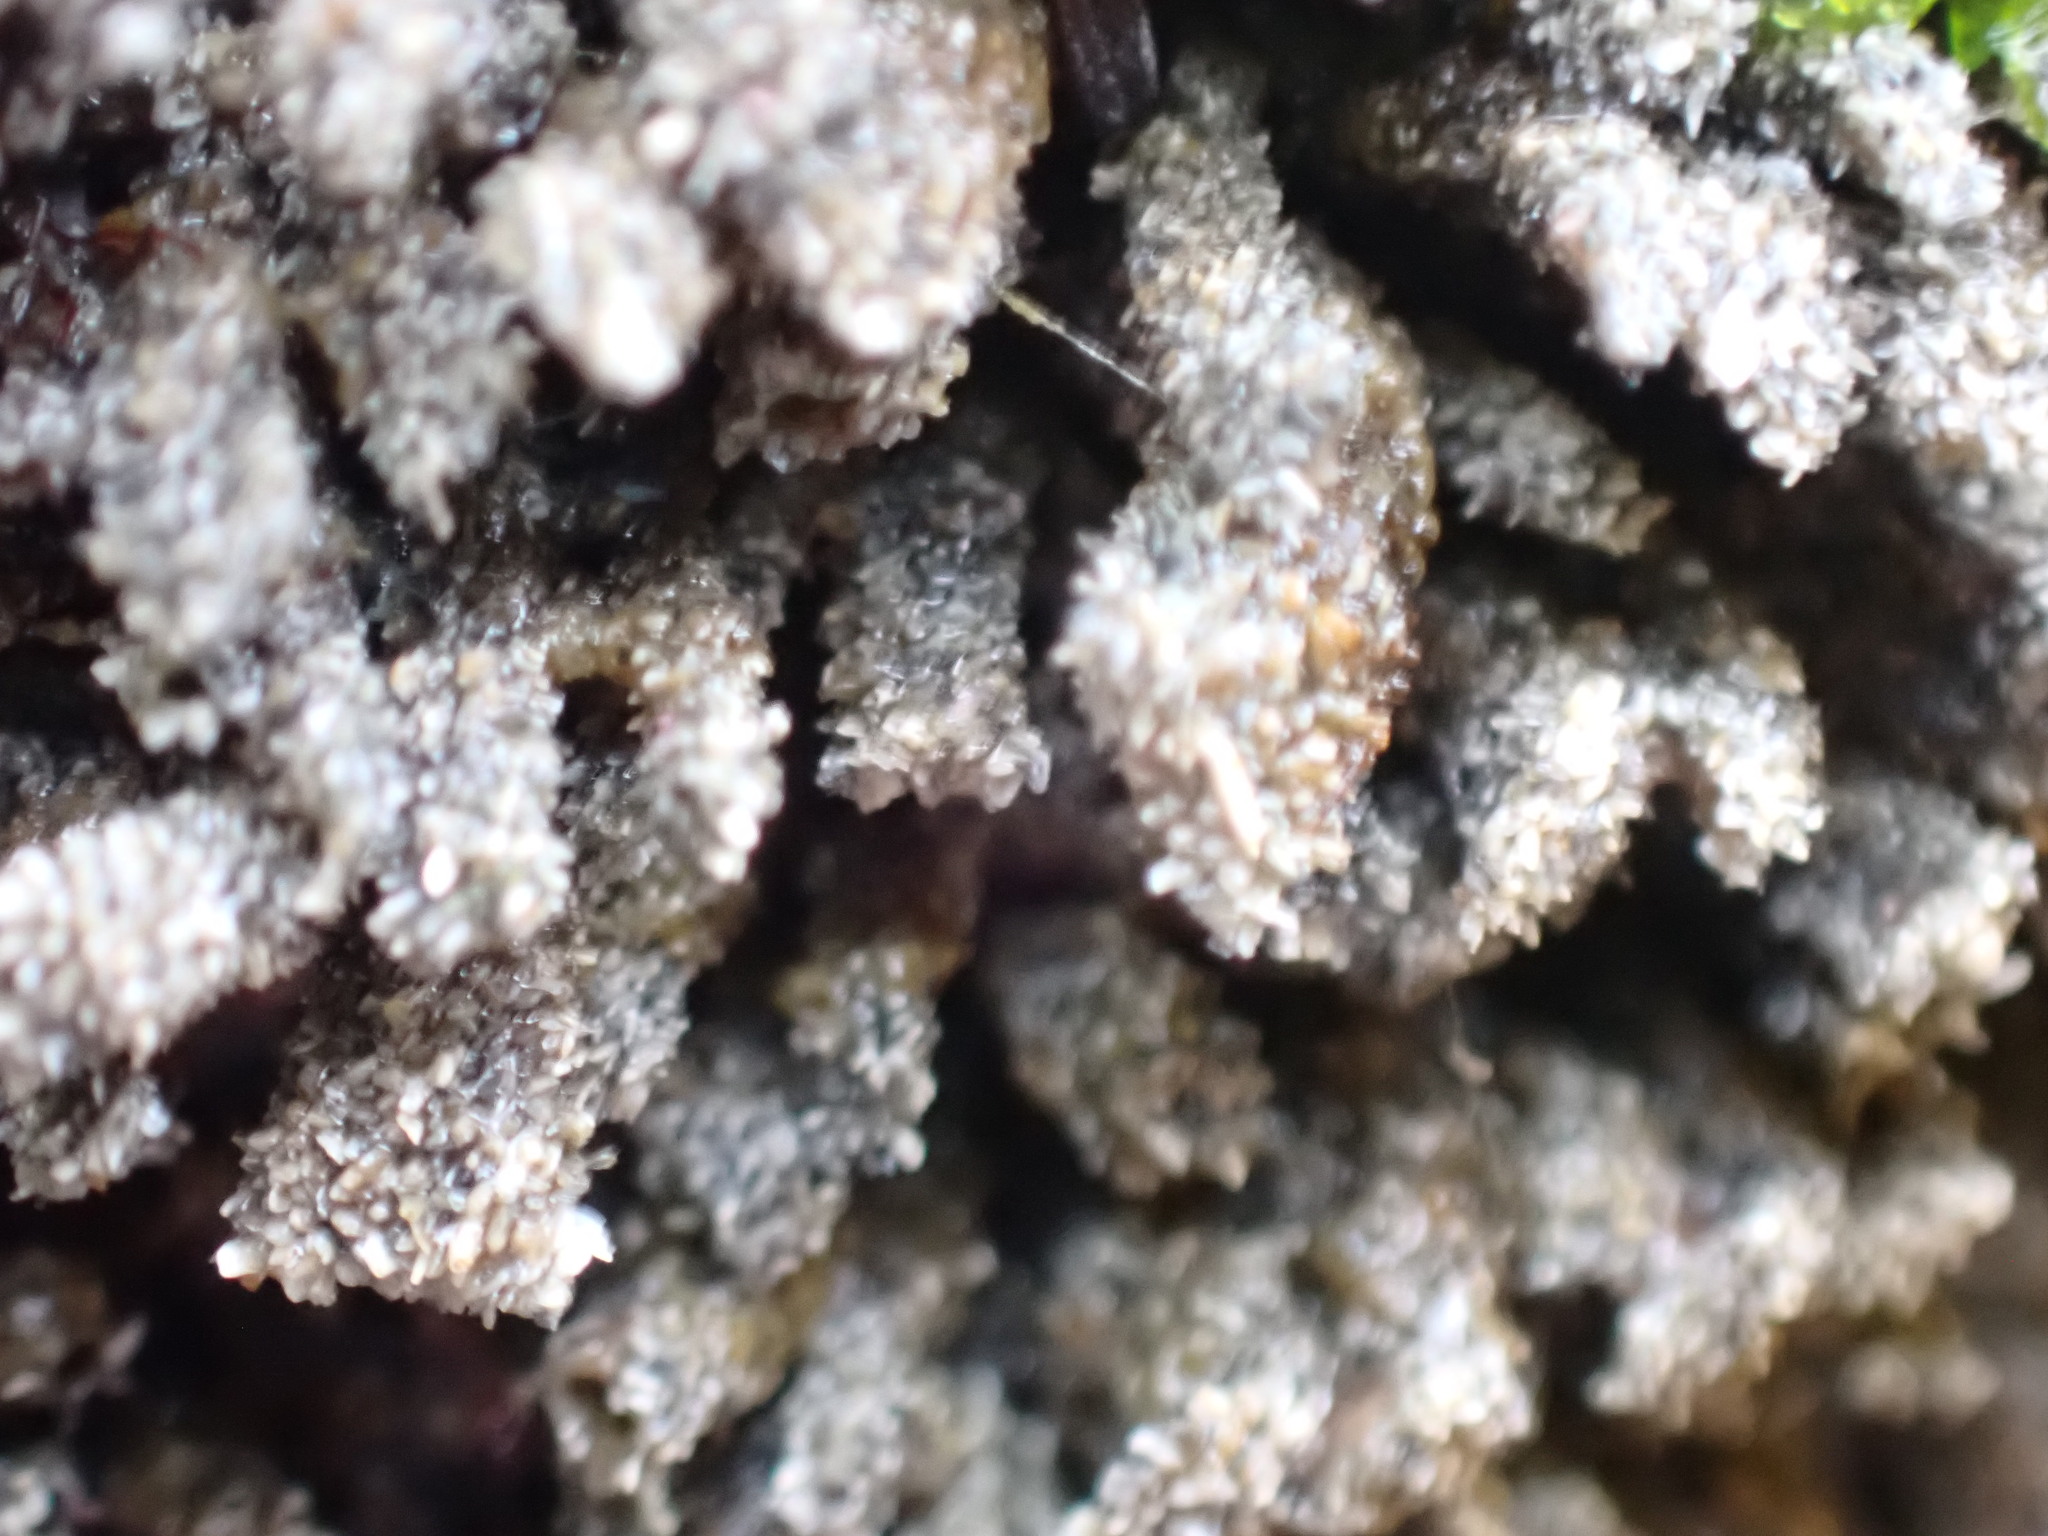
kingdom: Animalia
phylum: Chordata
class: Ascidiacea
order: Aplousobranchia
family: Clavelinidae
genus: Pycnoclavella
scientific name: Pycnoclavella stanleyi
